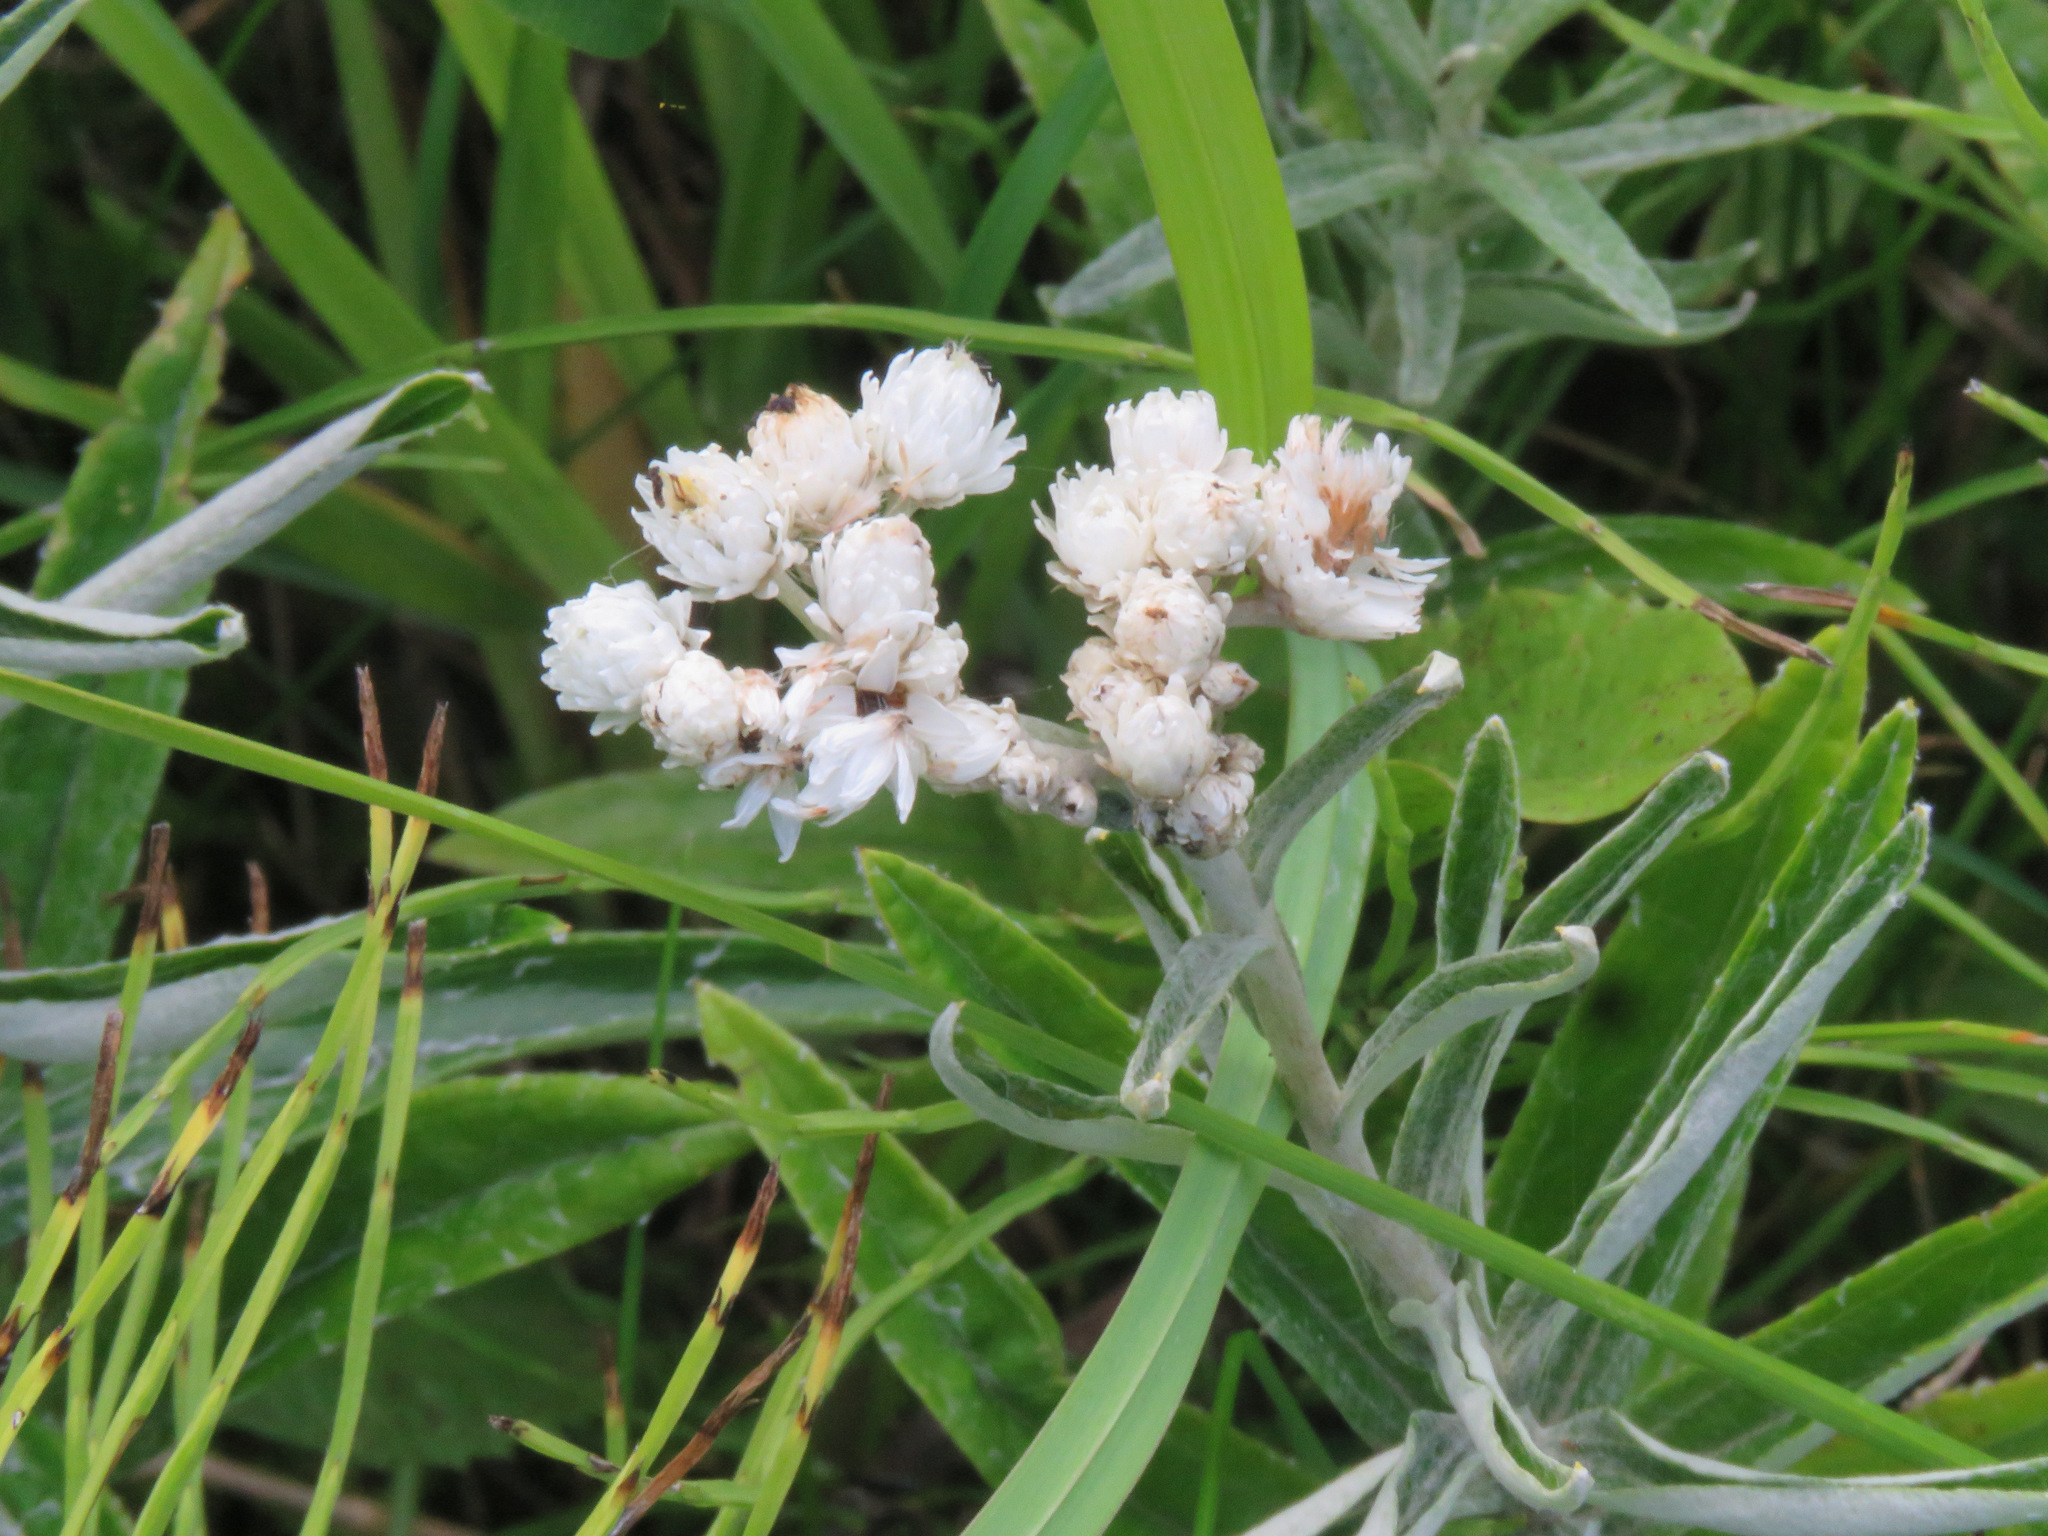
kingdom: Plantae
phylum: Tracheophyta
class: Magnoliopsida
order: Asterales
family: Asteraceae
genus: Anaphalis
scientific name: Anaphalis margaritacea
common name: Pearly everlasting
